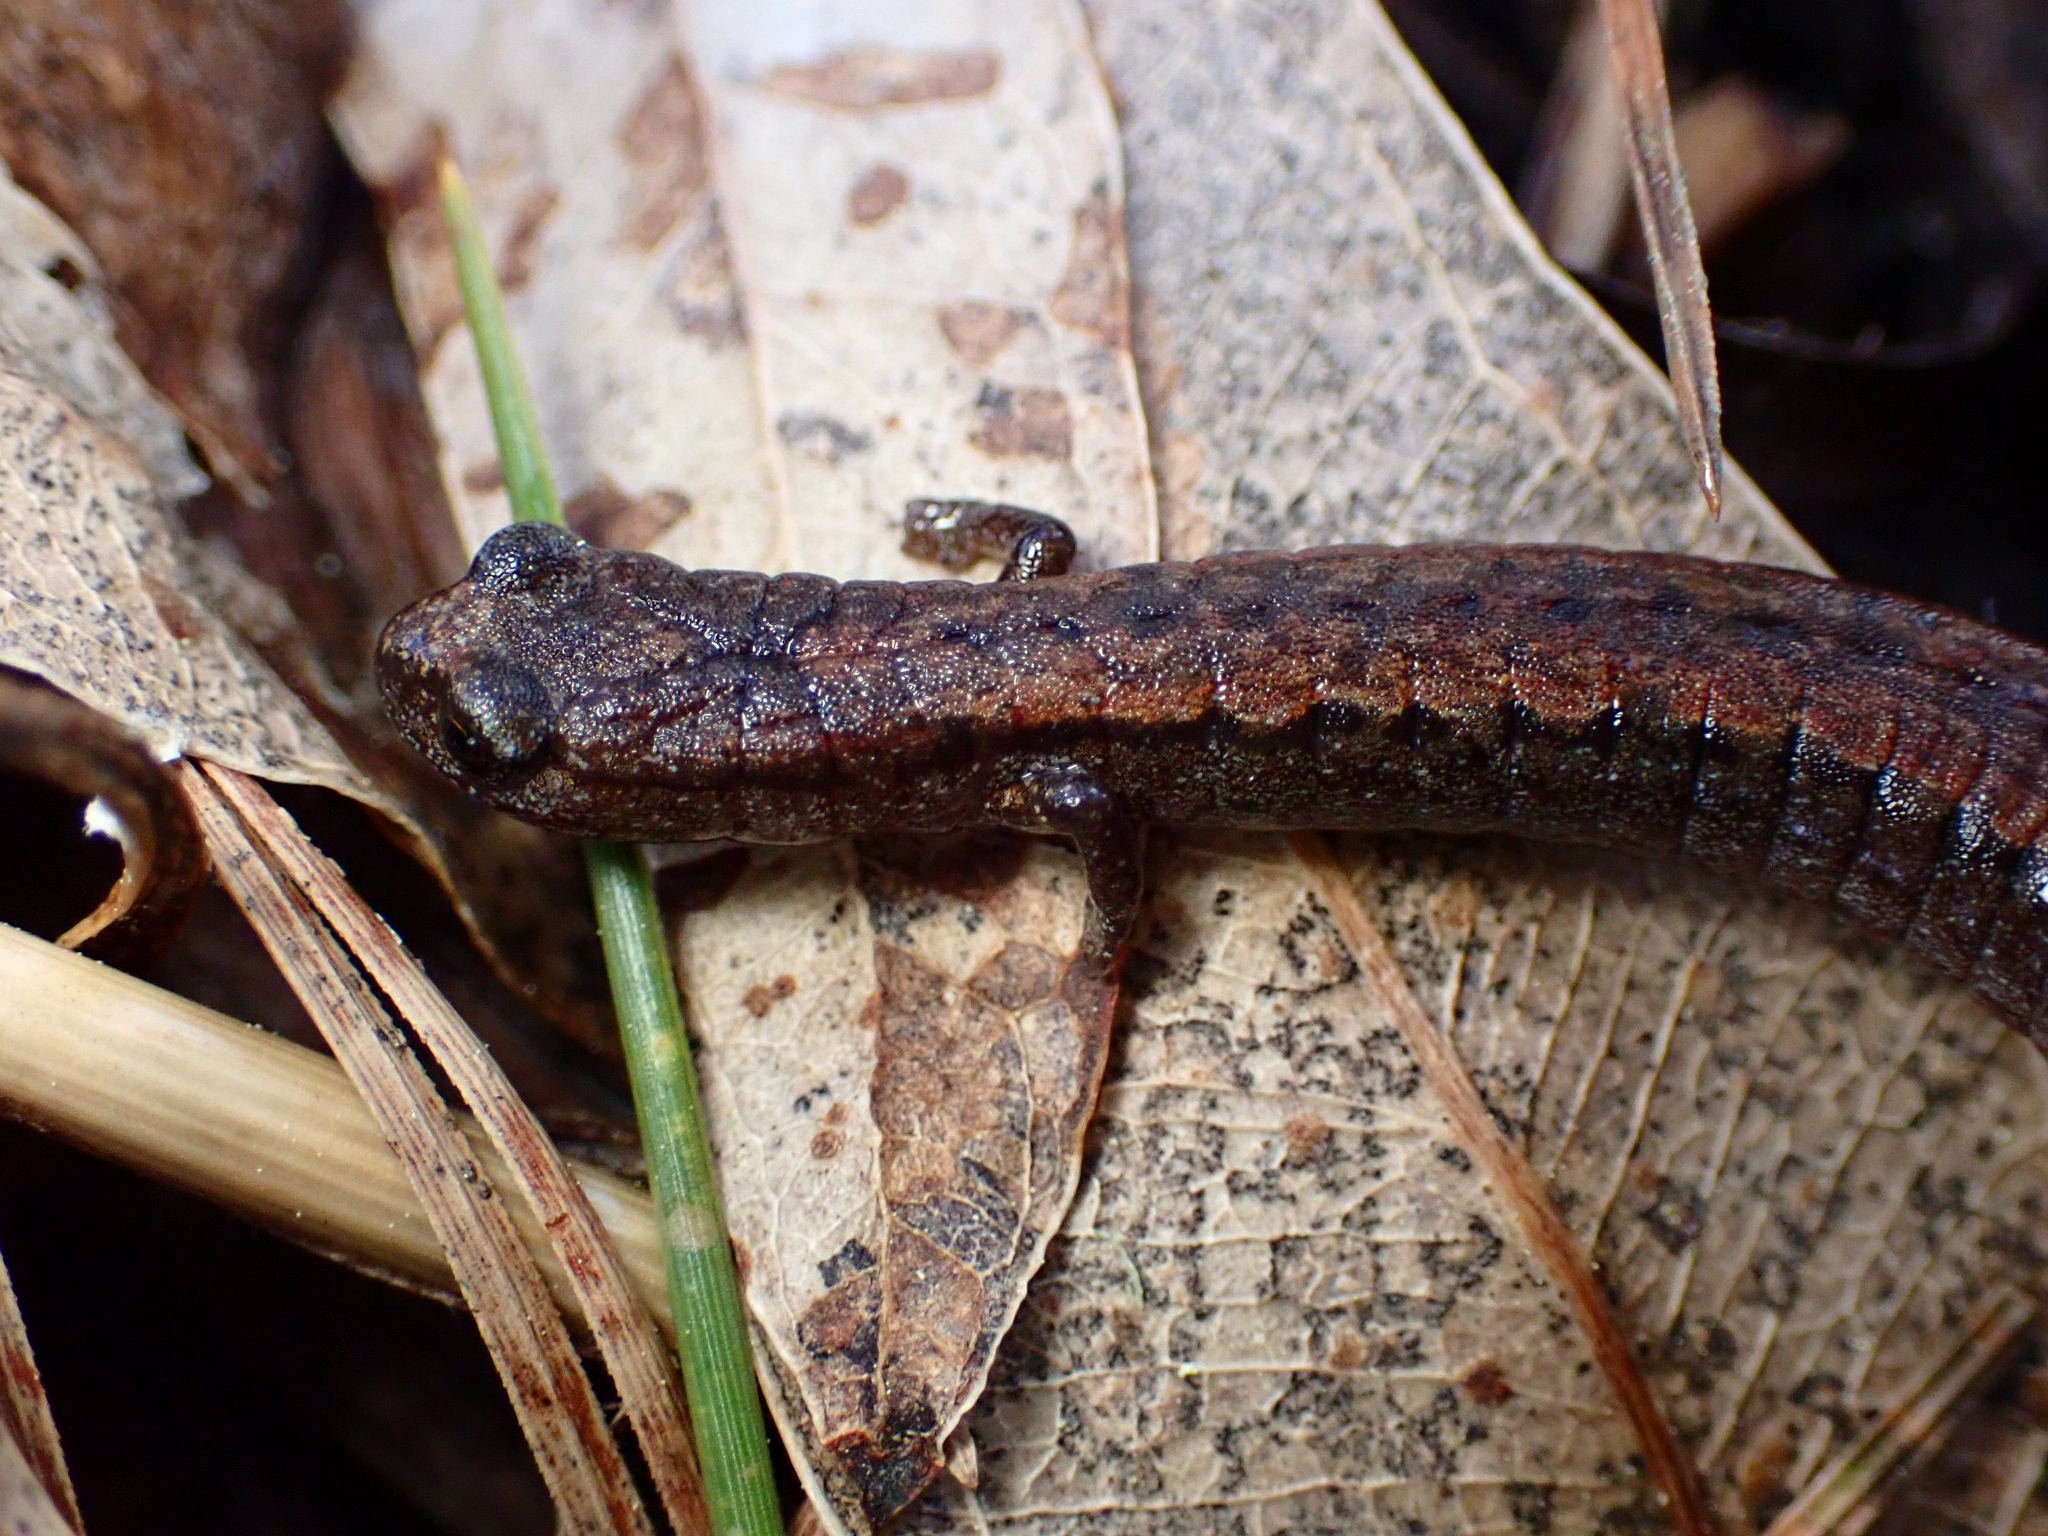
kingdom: Animalia
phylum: Chordata
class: Amphibia
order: Caudata
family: Plethodontidae
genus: Batrachoseps
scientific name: Batrachoseps attenuatus
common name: California slender salamander
